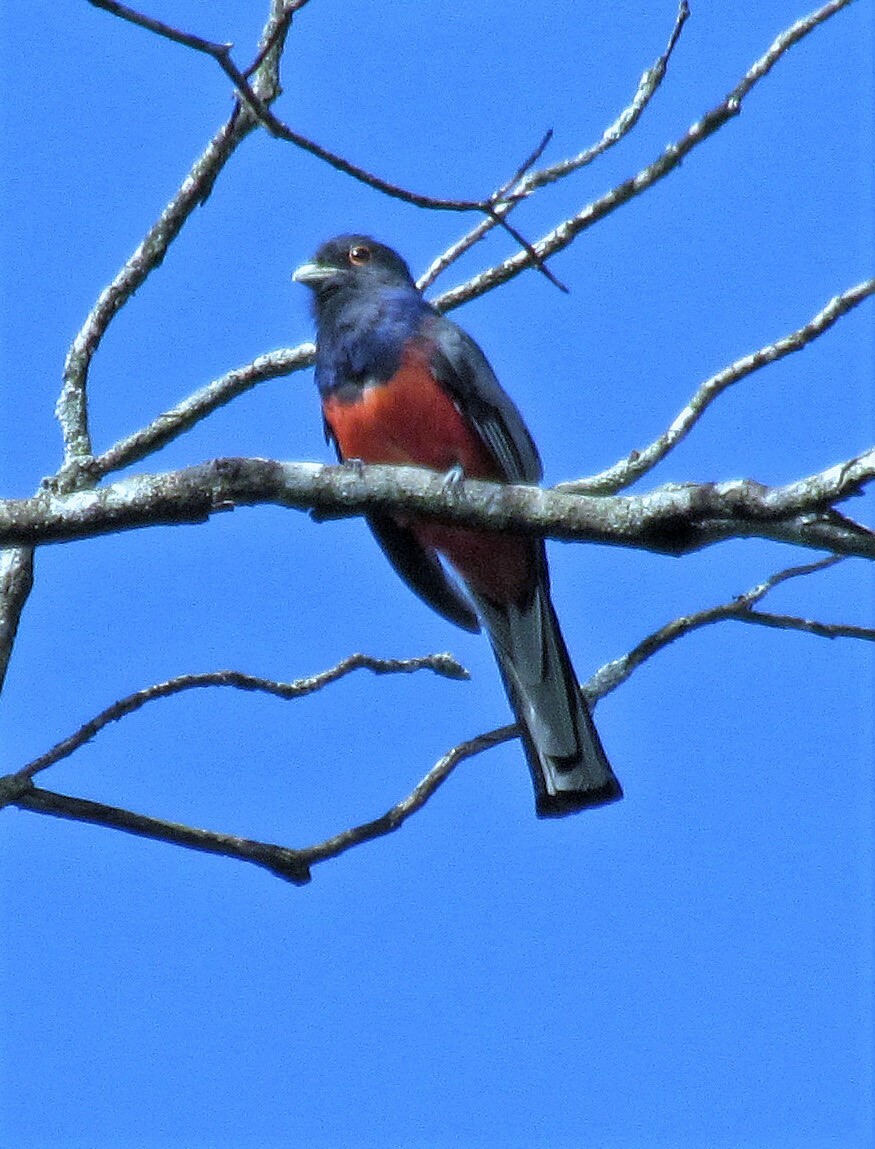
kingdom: Animalia
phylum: Chordata
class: Aves
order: Trogoniformes
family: Trogonidae
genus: Trogon
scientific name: Trogon surrucura
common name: Surucua trogon
